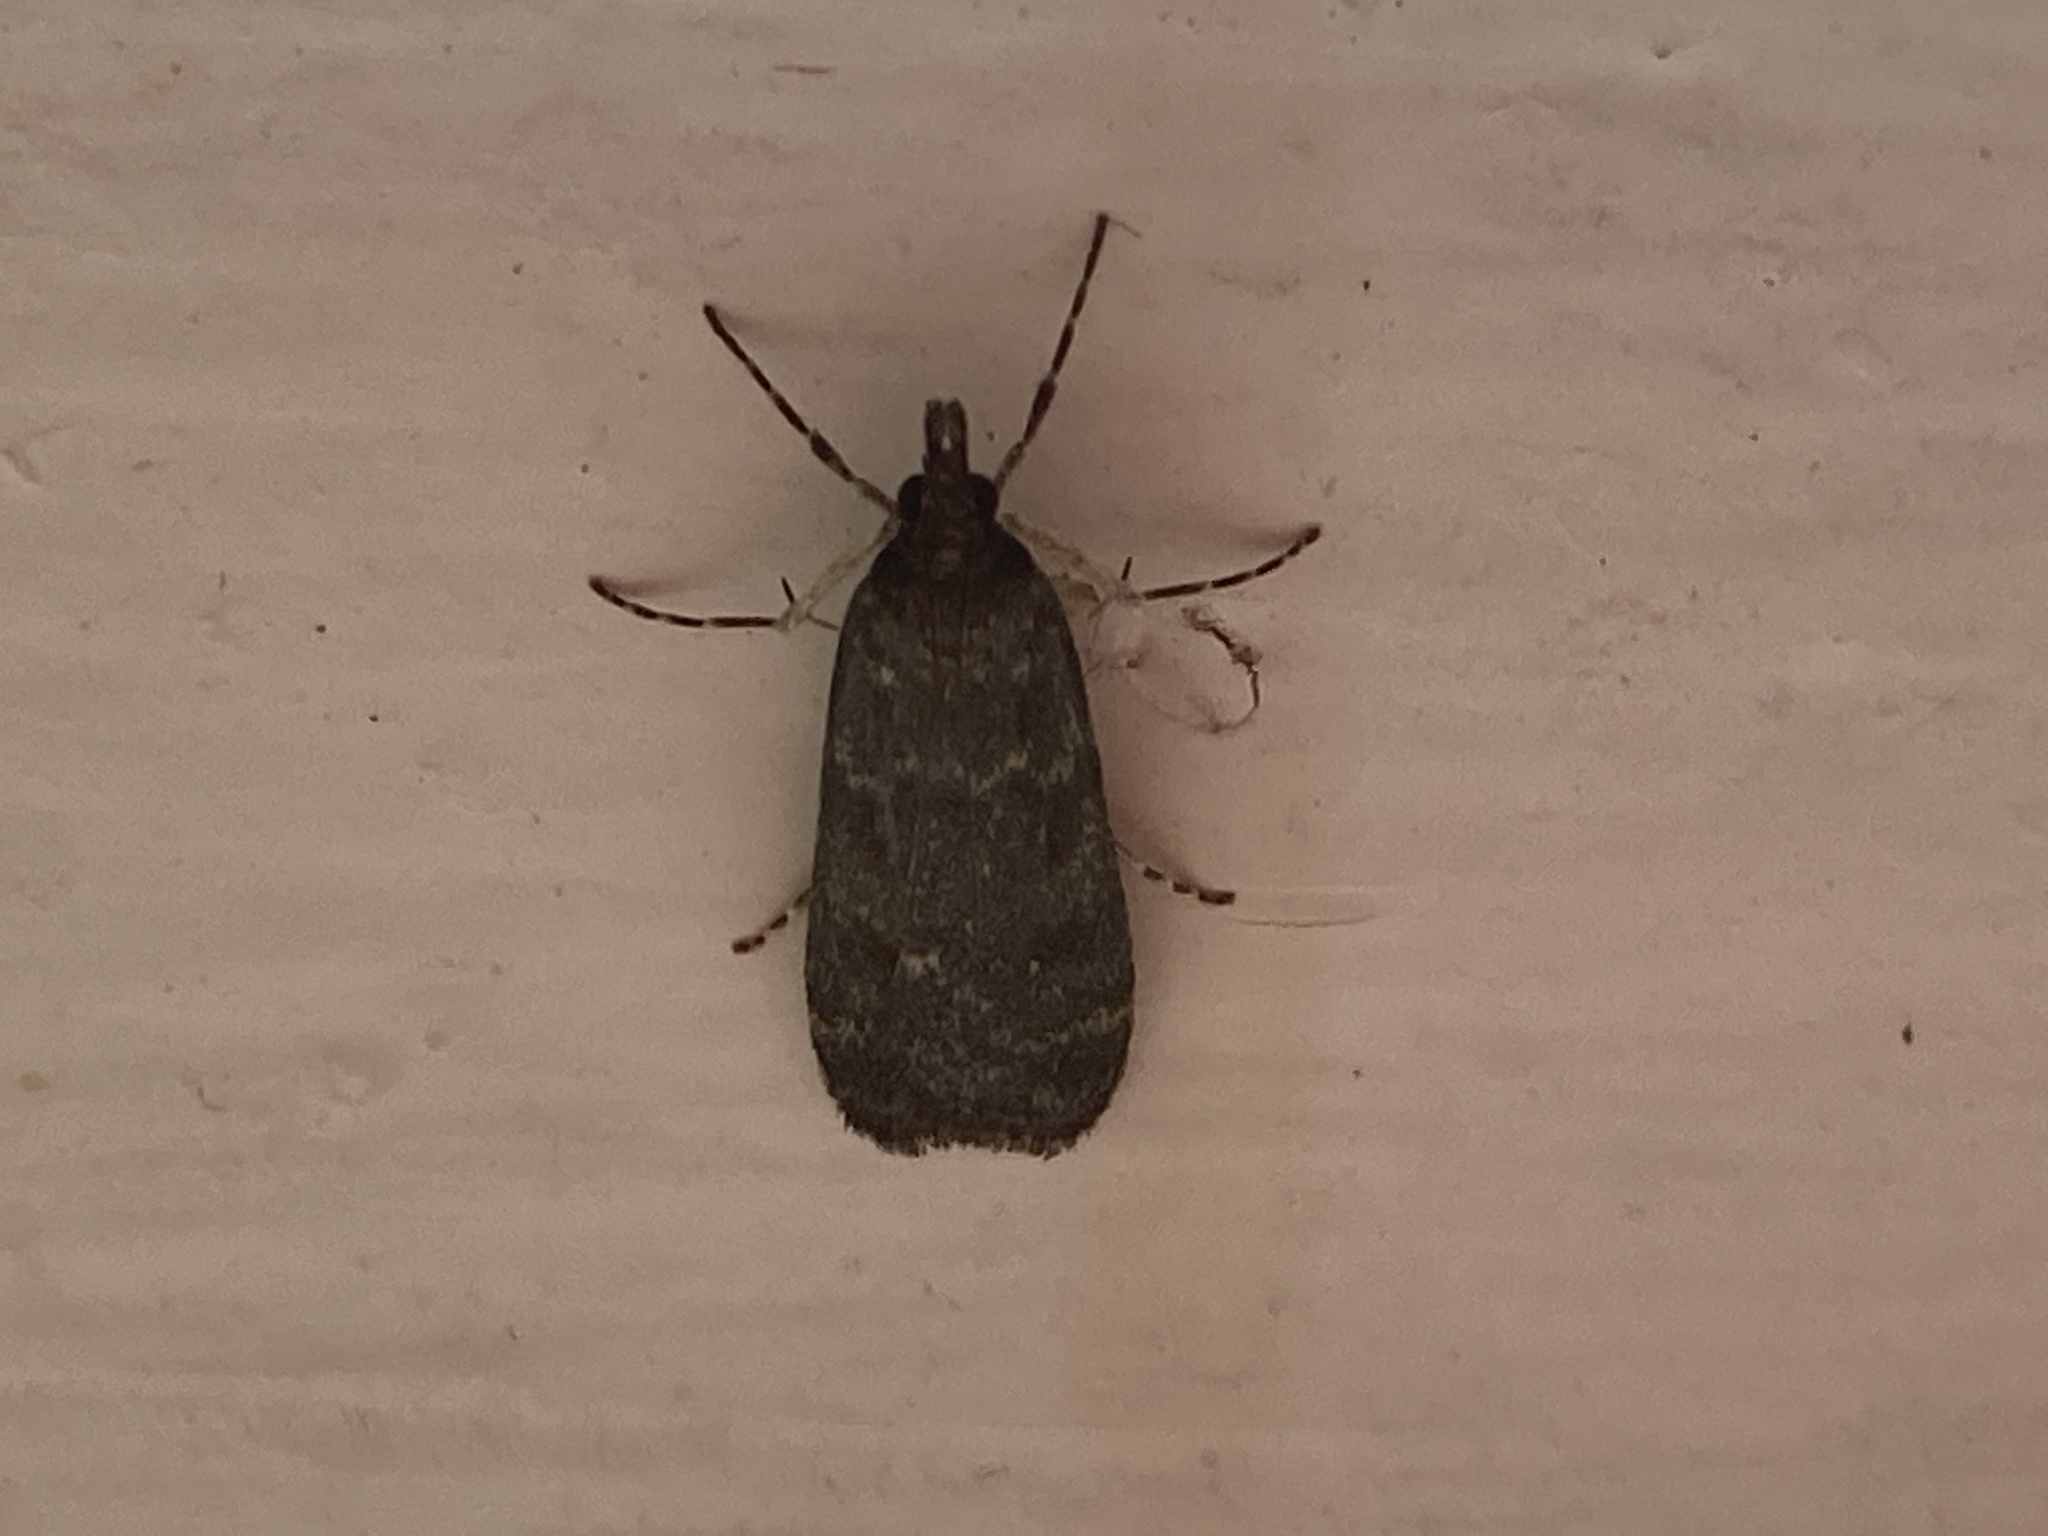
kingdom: Animalia
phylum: Arthropoda
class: Insecta
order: Lepidoptera
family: Crambidae
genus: Eudonia
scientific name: Eudonia cataxesta
